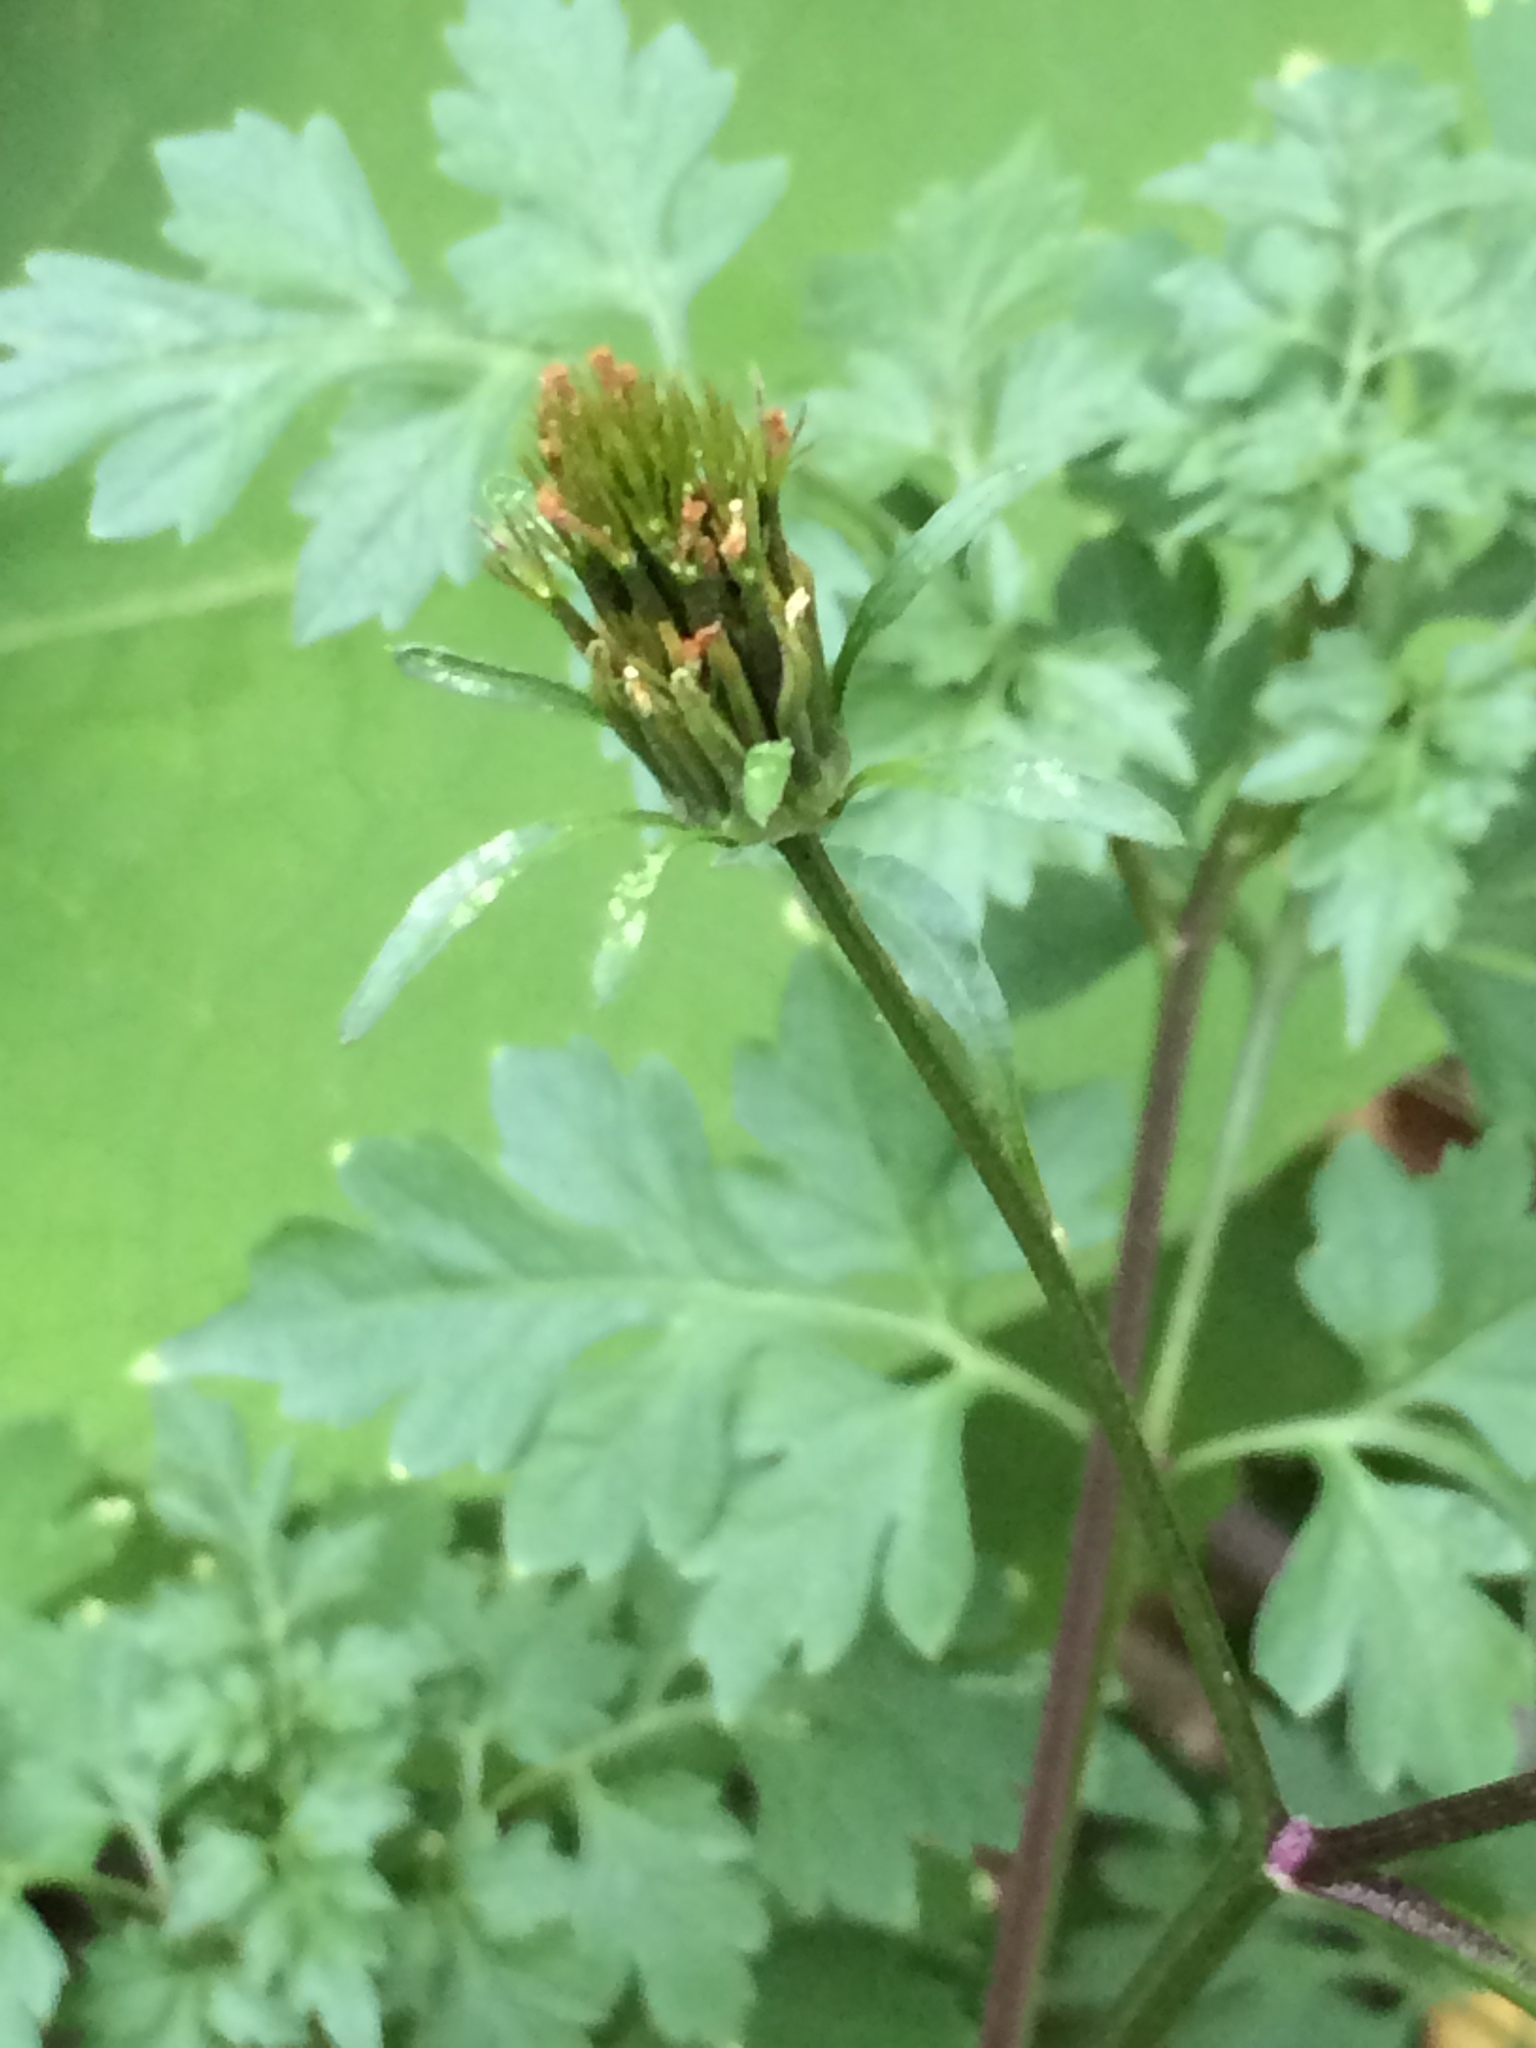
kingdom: Plantae
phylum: Tracheophyta
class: Magnoliopsida
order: Asterales
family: Asteraceae
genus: Bidens
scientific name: Bidens bipinnata
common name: Spanish-needles
